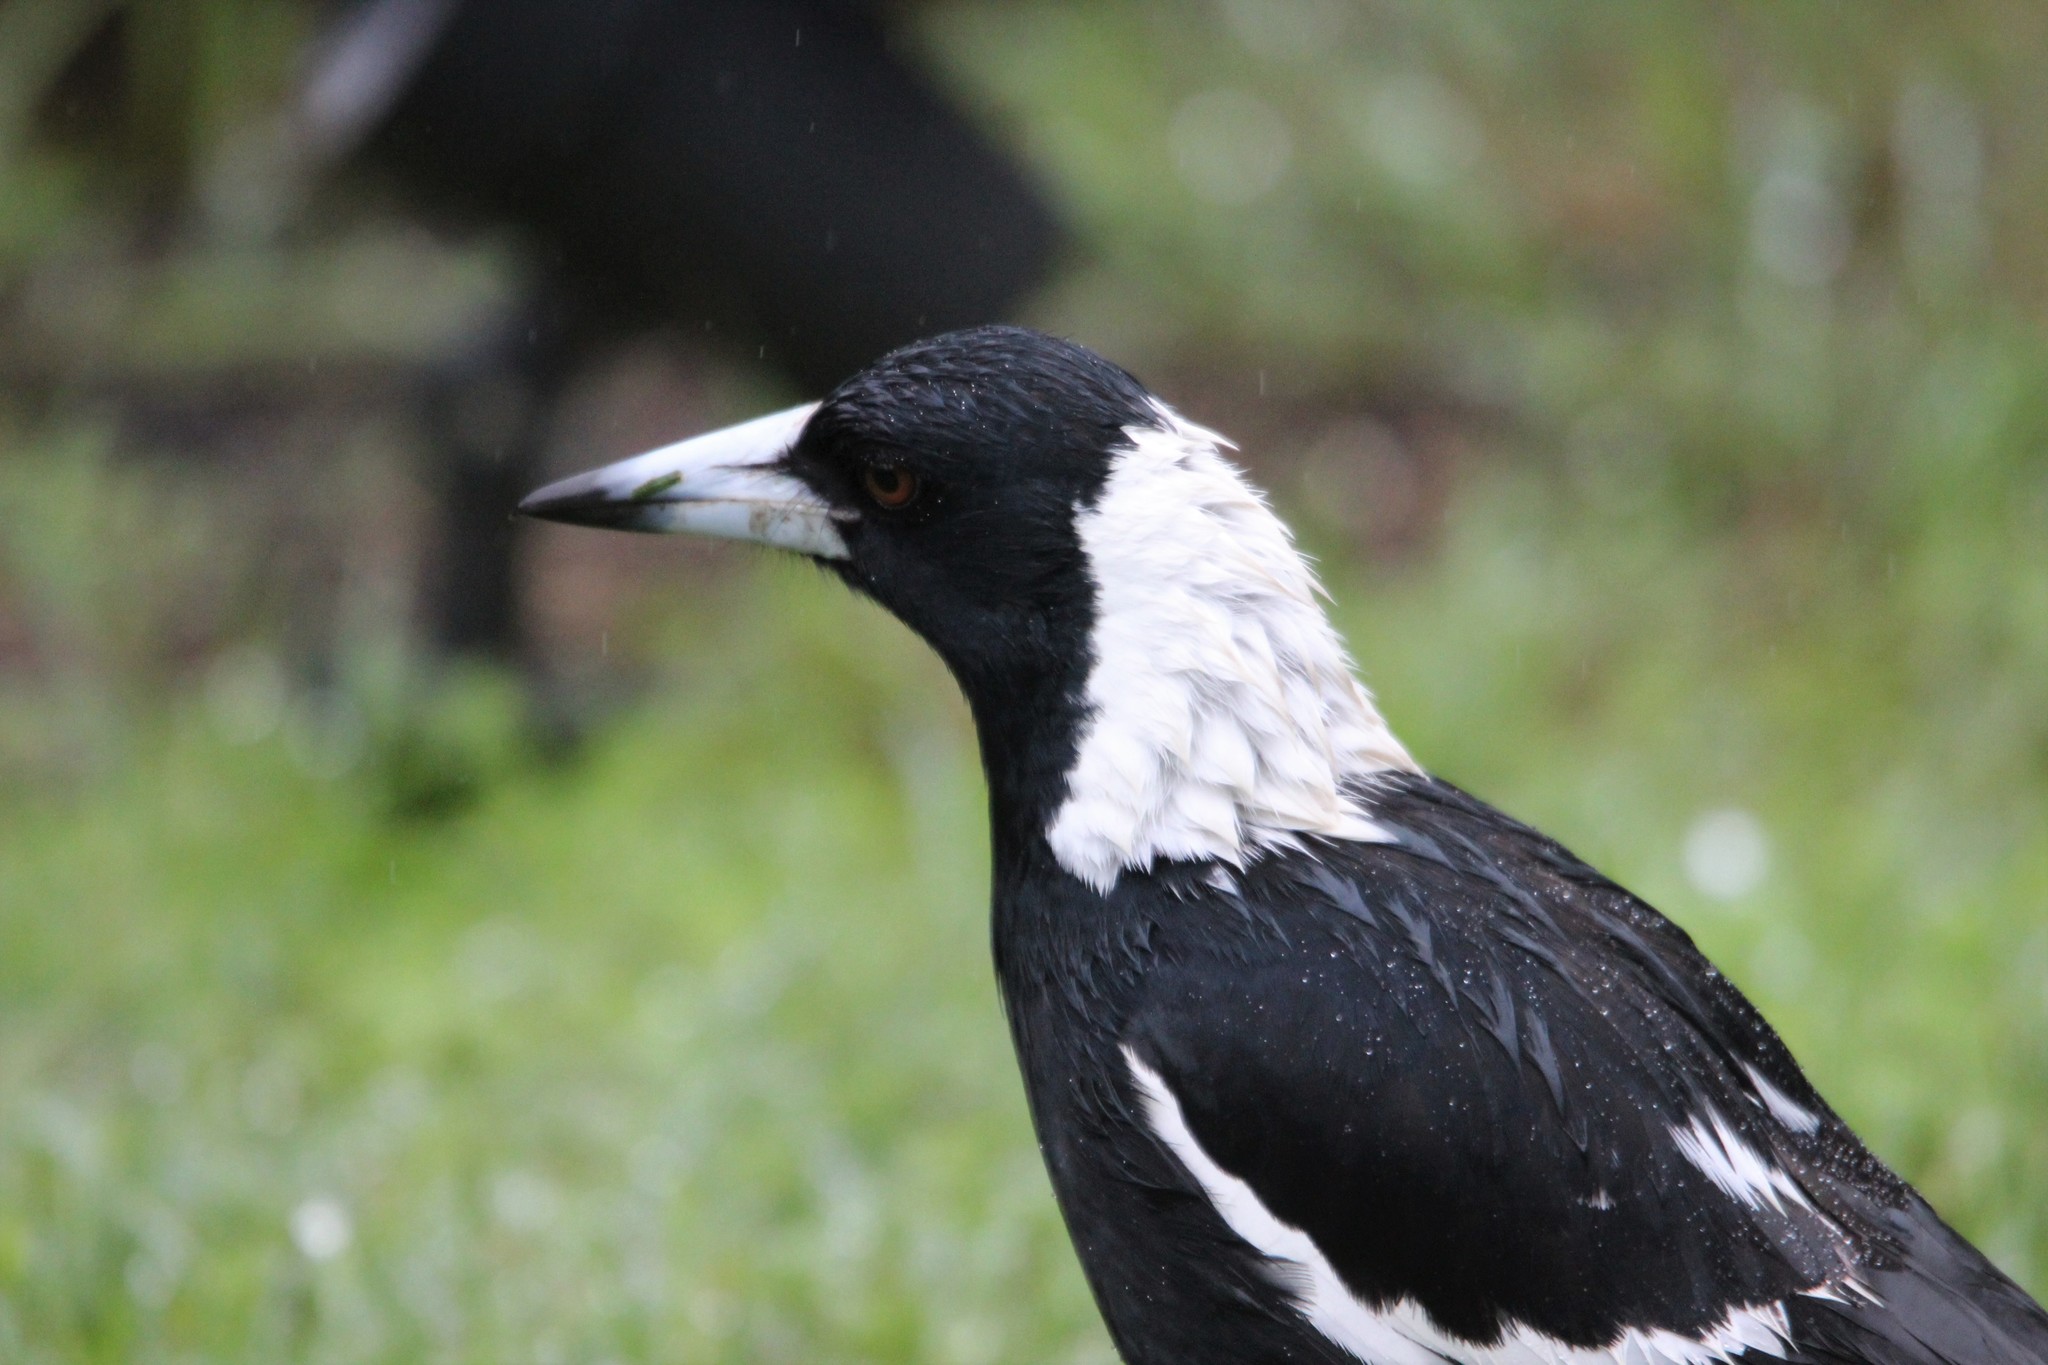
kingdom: Animalia
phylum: Chordata
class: Aves
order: Passeriformes
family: Cracticidae
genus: Gymnorhina
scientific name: Gymnorhina tibicen
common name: Australian magpie
